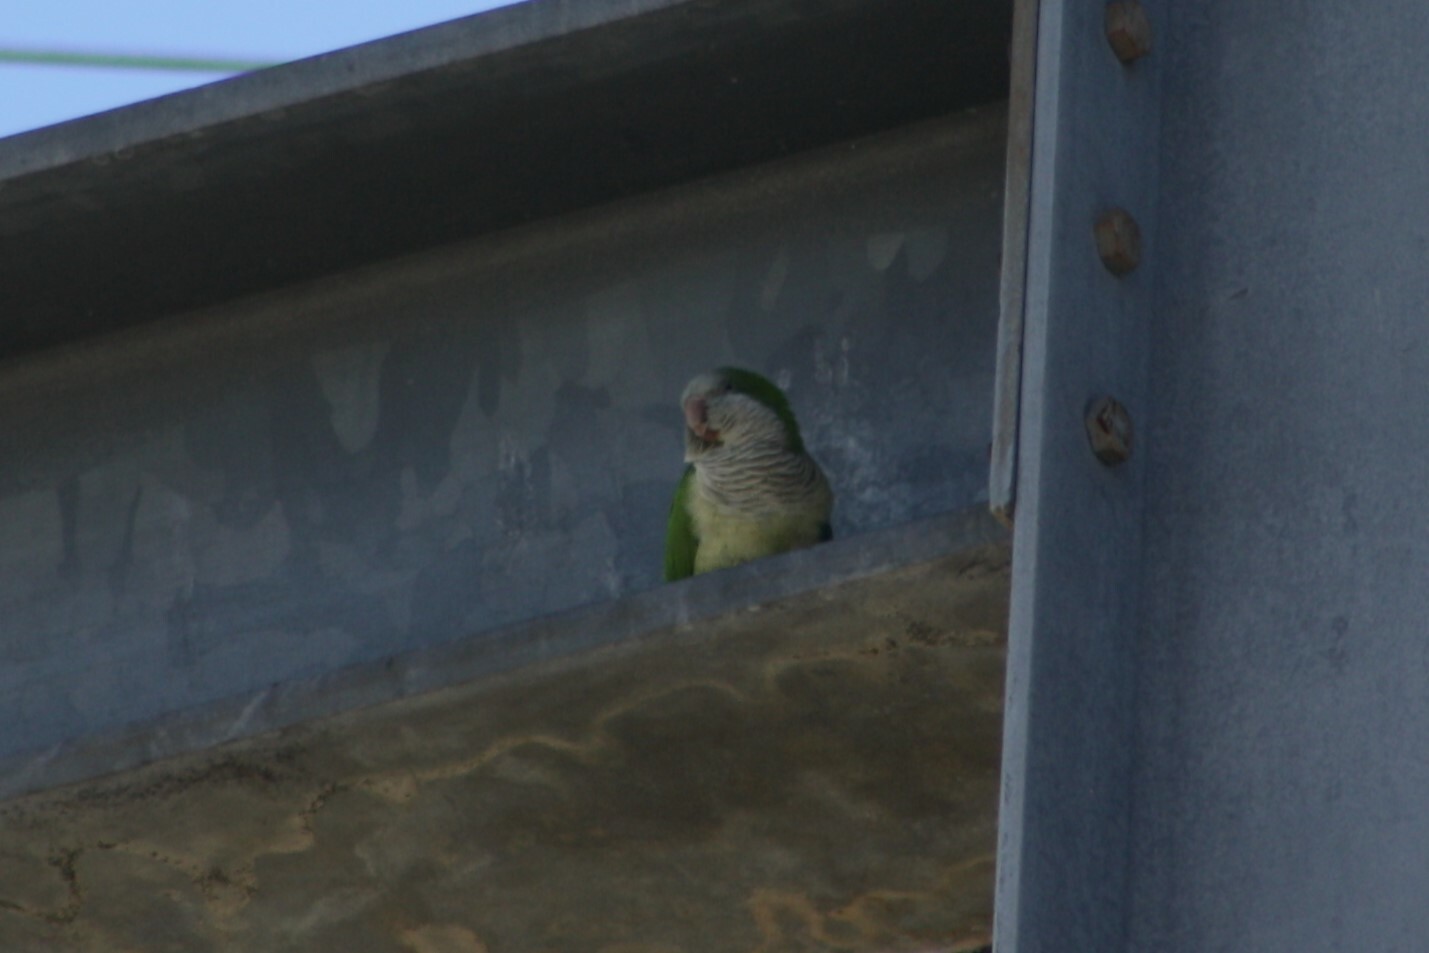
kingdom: Animalia
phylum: Chordata
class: Aves
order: Psittaciformes
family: Psittacidae
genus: Myiopsitta
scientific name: Myiopsitta monachus
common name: Monk parakeet
